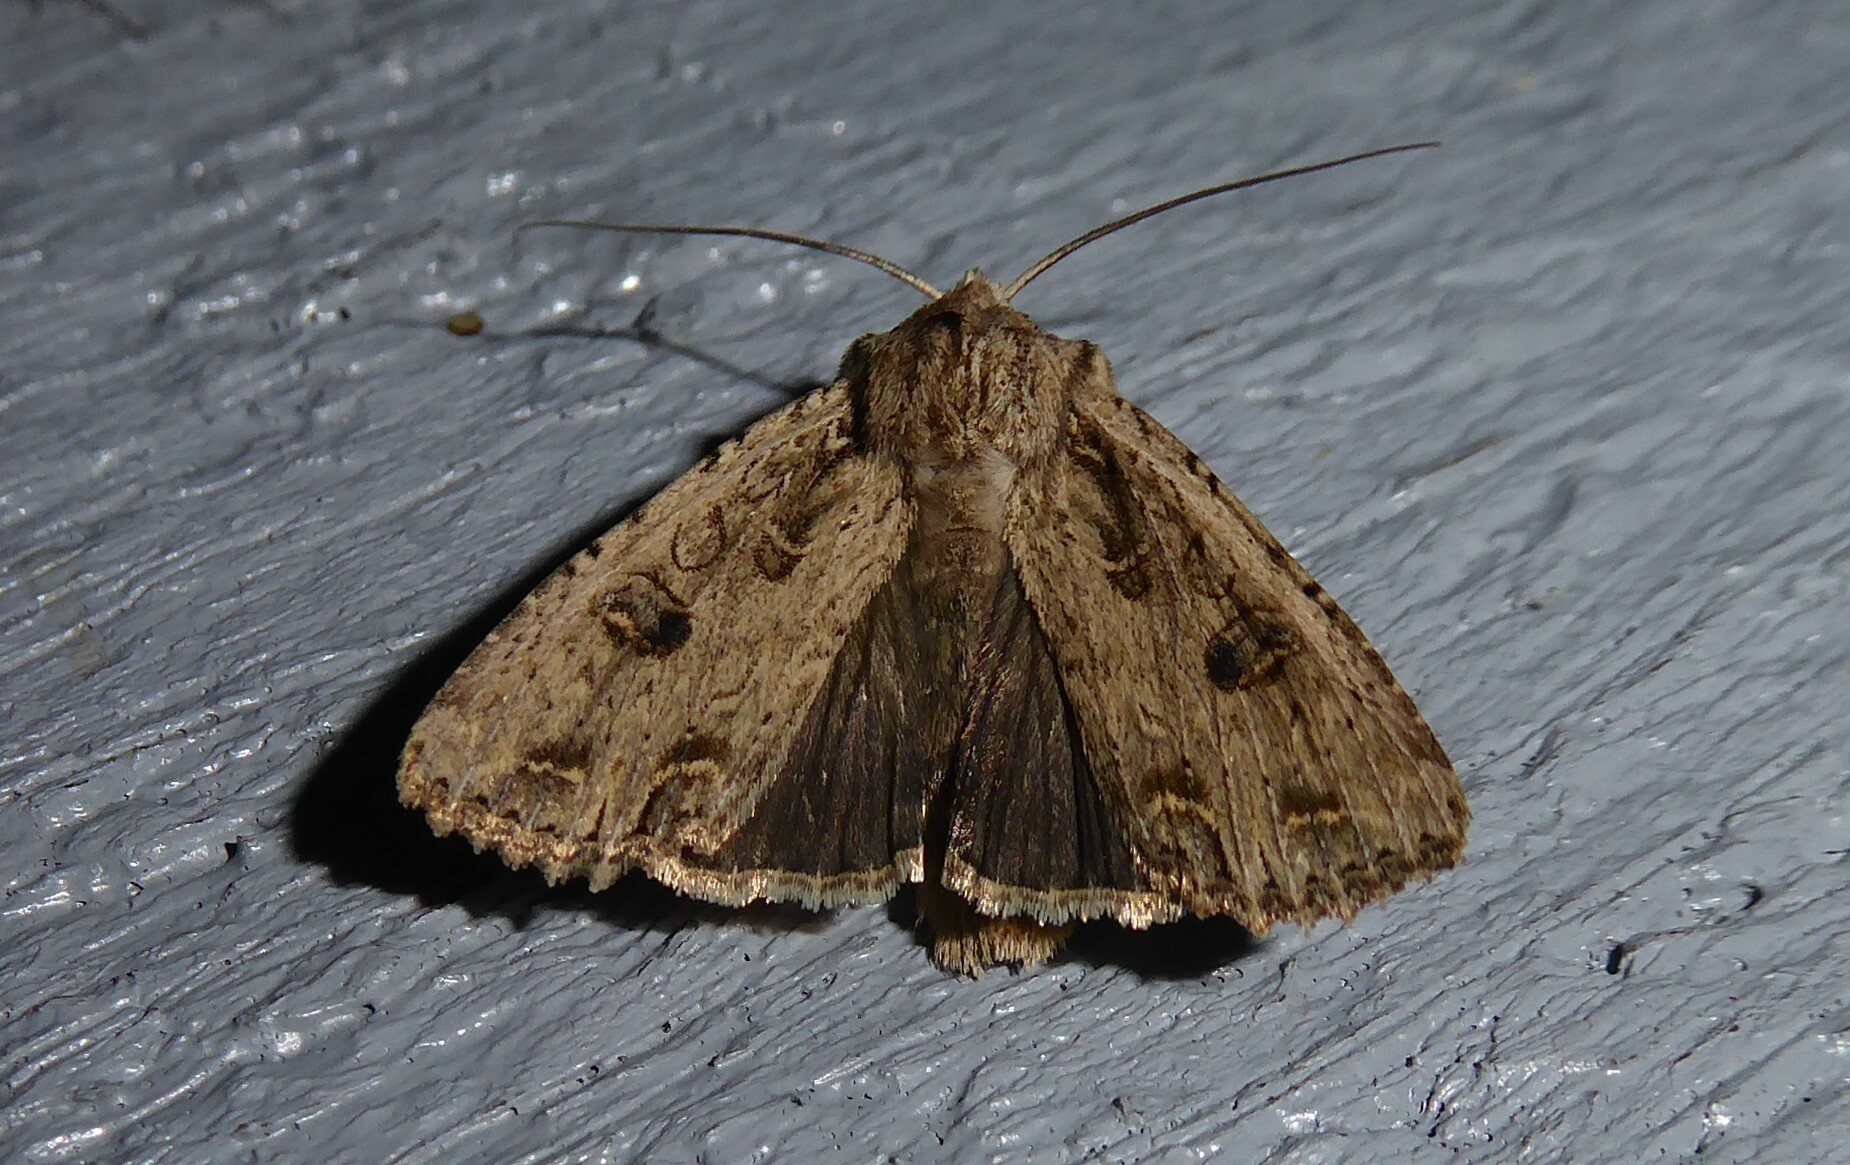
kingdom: Animalia
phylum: Arthropoda
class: Insecta
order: Lepidoptera
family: Noctuidae
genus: Ichneutica
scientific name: Ichneutica lignana
